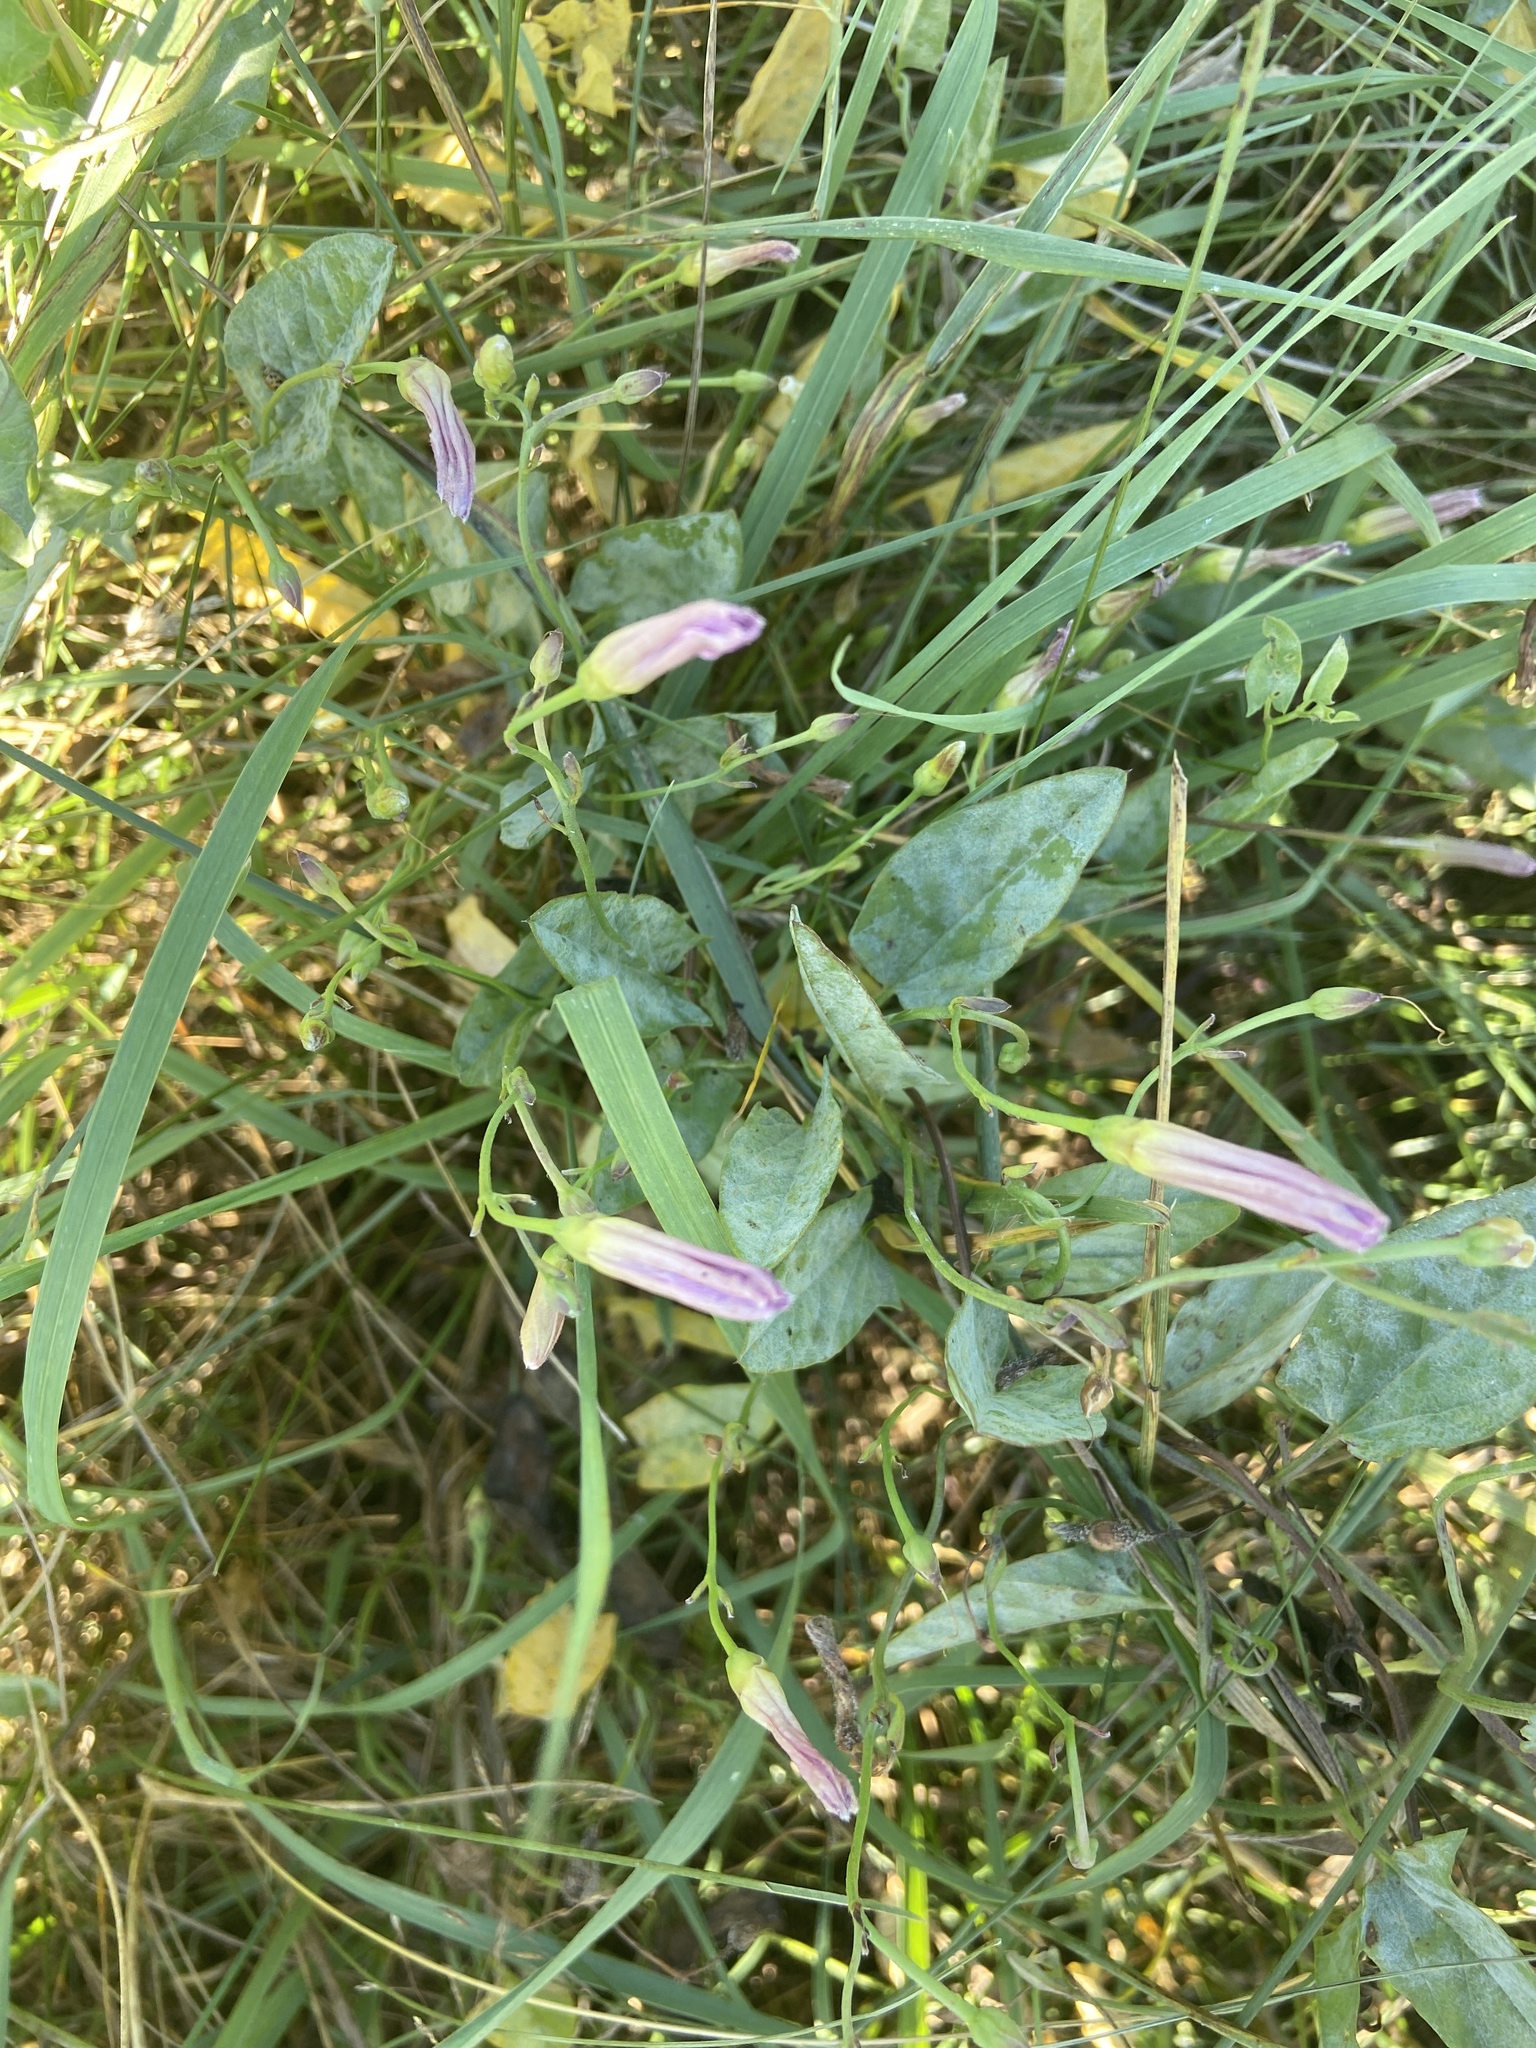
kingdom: Plantae
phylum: Tracheophyta
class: Magnoliopsida
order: Solanales
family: Convolvulaceae
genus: Convolvulus
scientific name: Convolvulus arvensis
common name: Field bindweed
